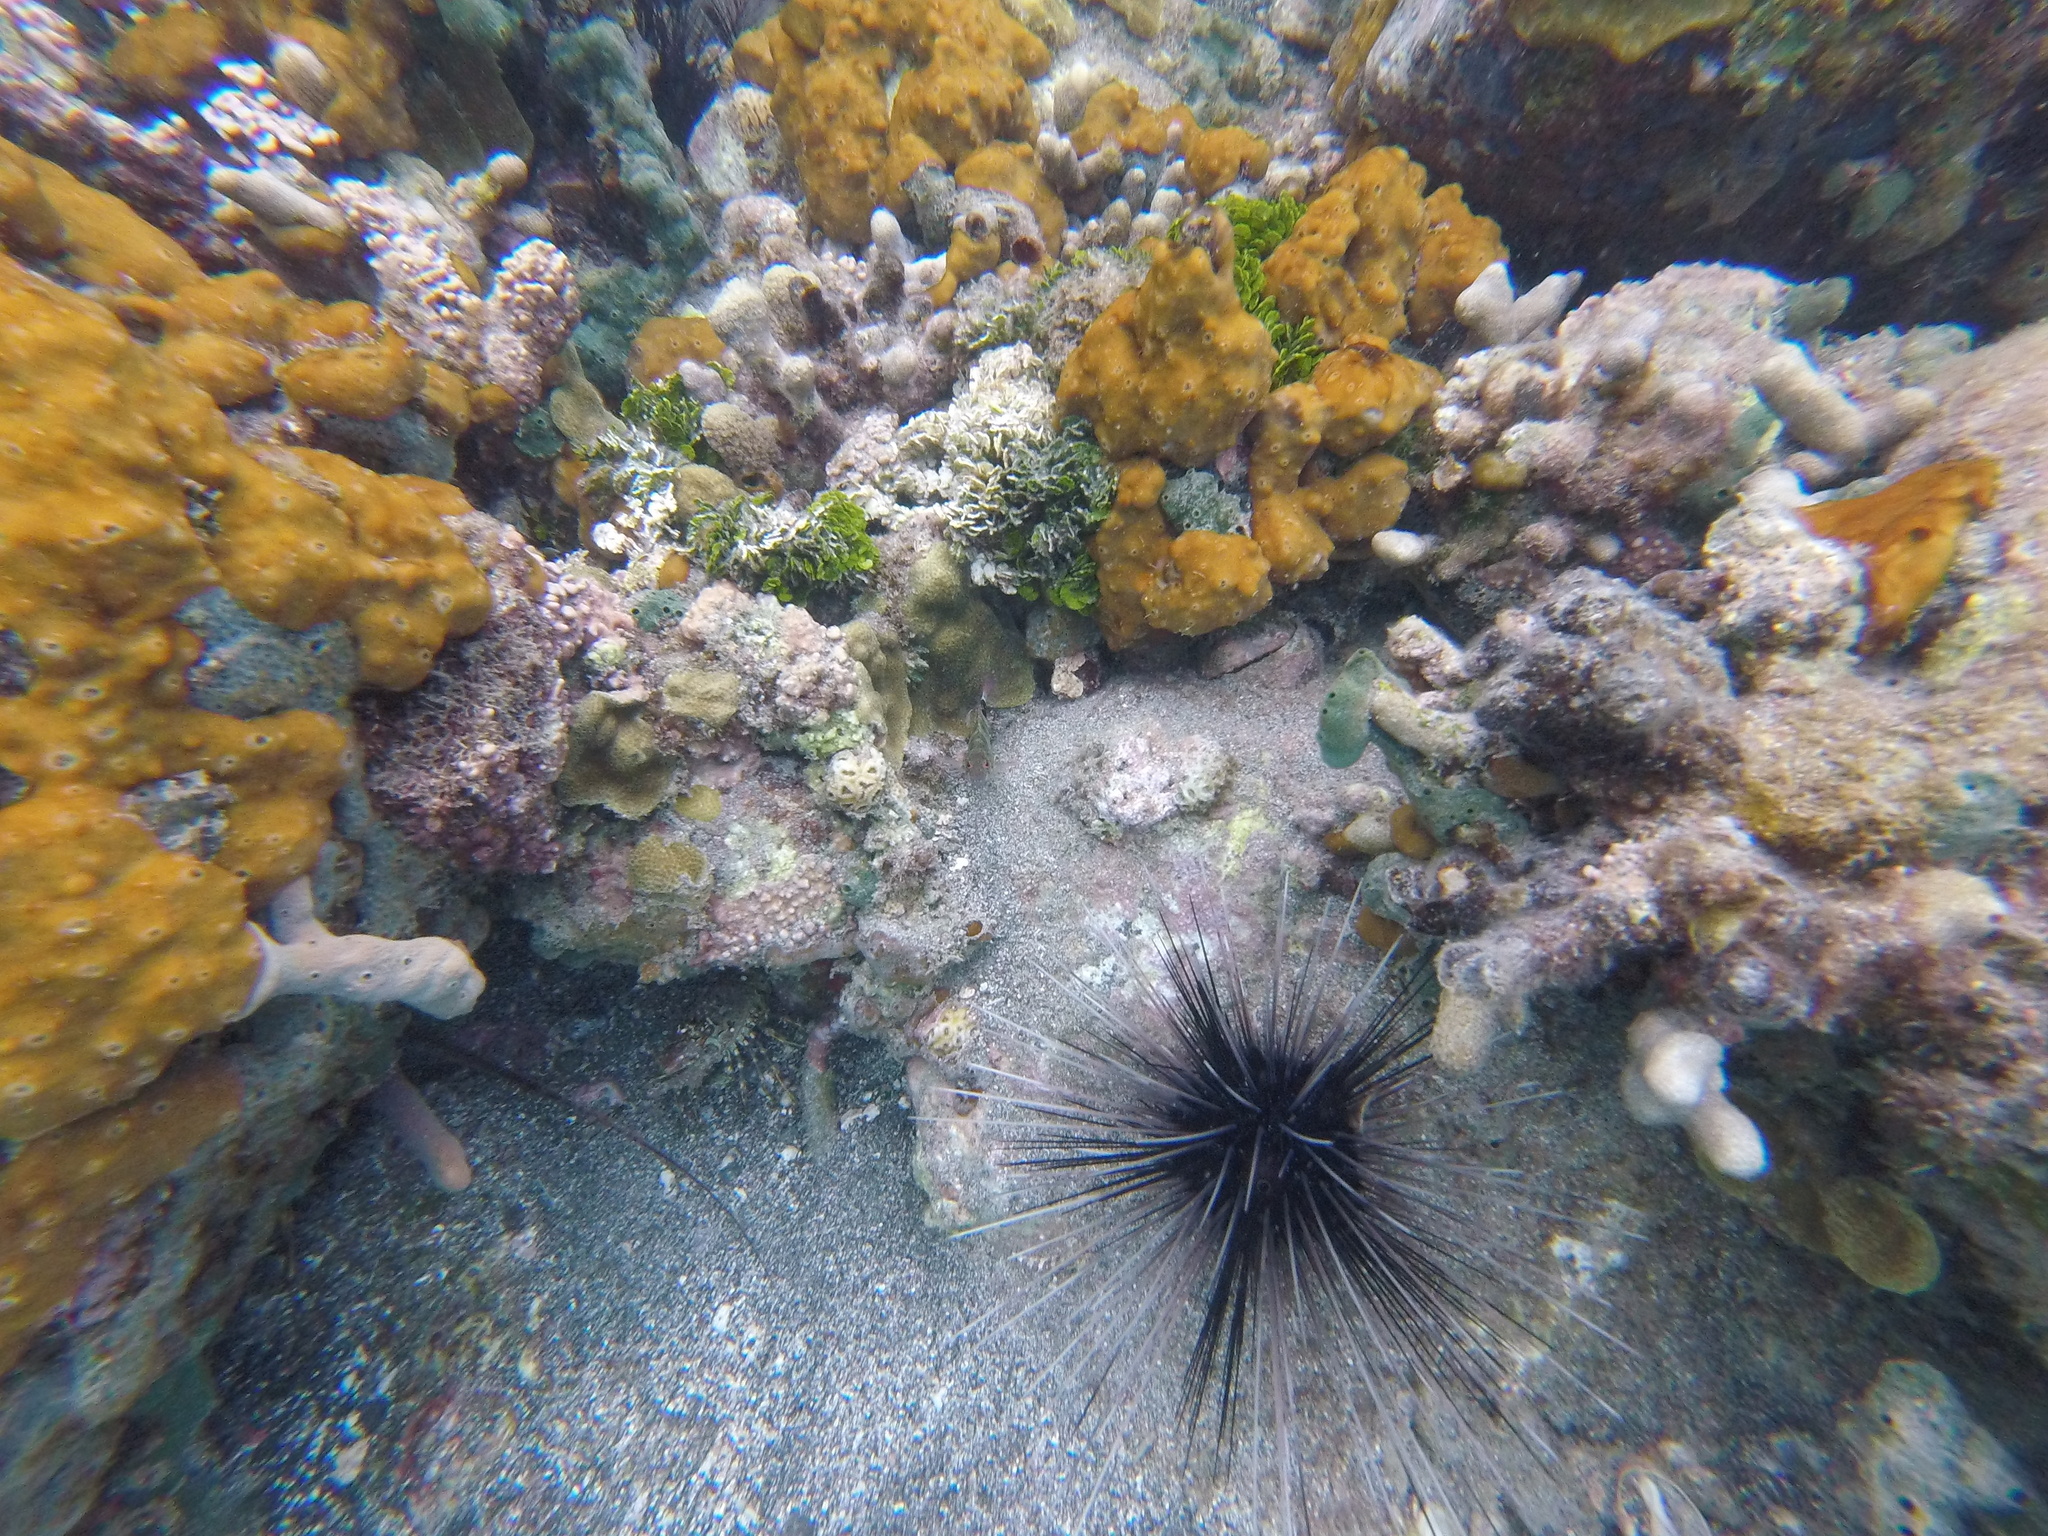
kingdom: Animalia
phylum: Echinodermata
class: Echinoidea
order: Diadematoida
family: Diadematidae
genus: Diadema
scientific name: Diadema antillarum
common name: Spiny urchin
